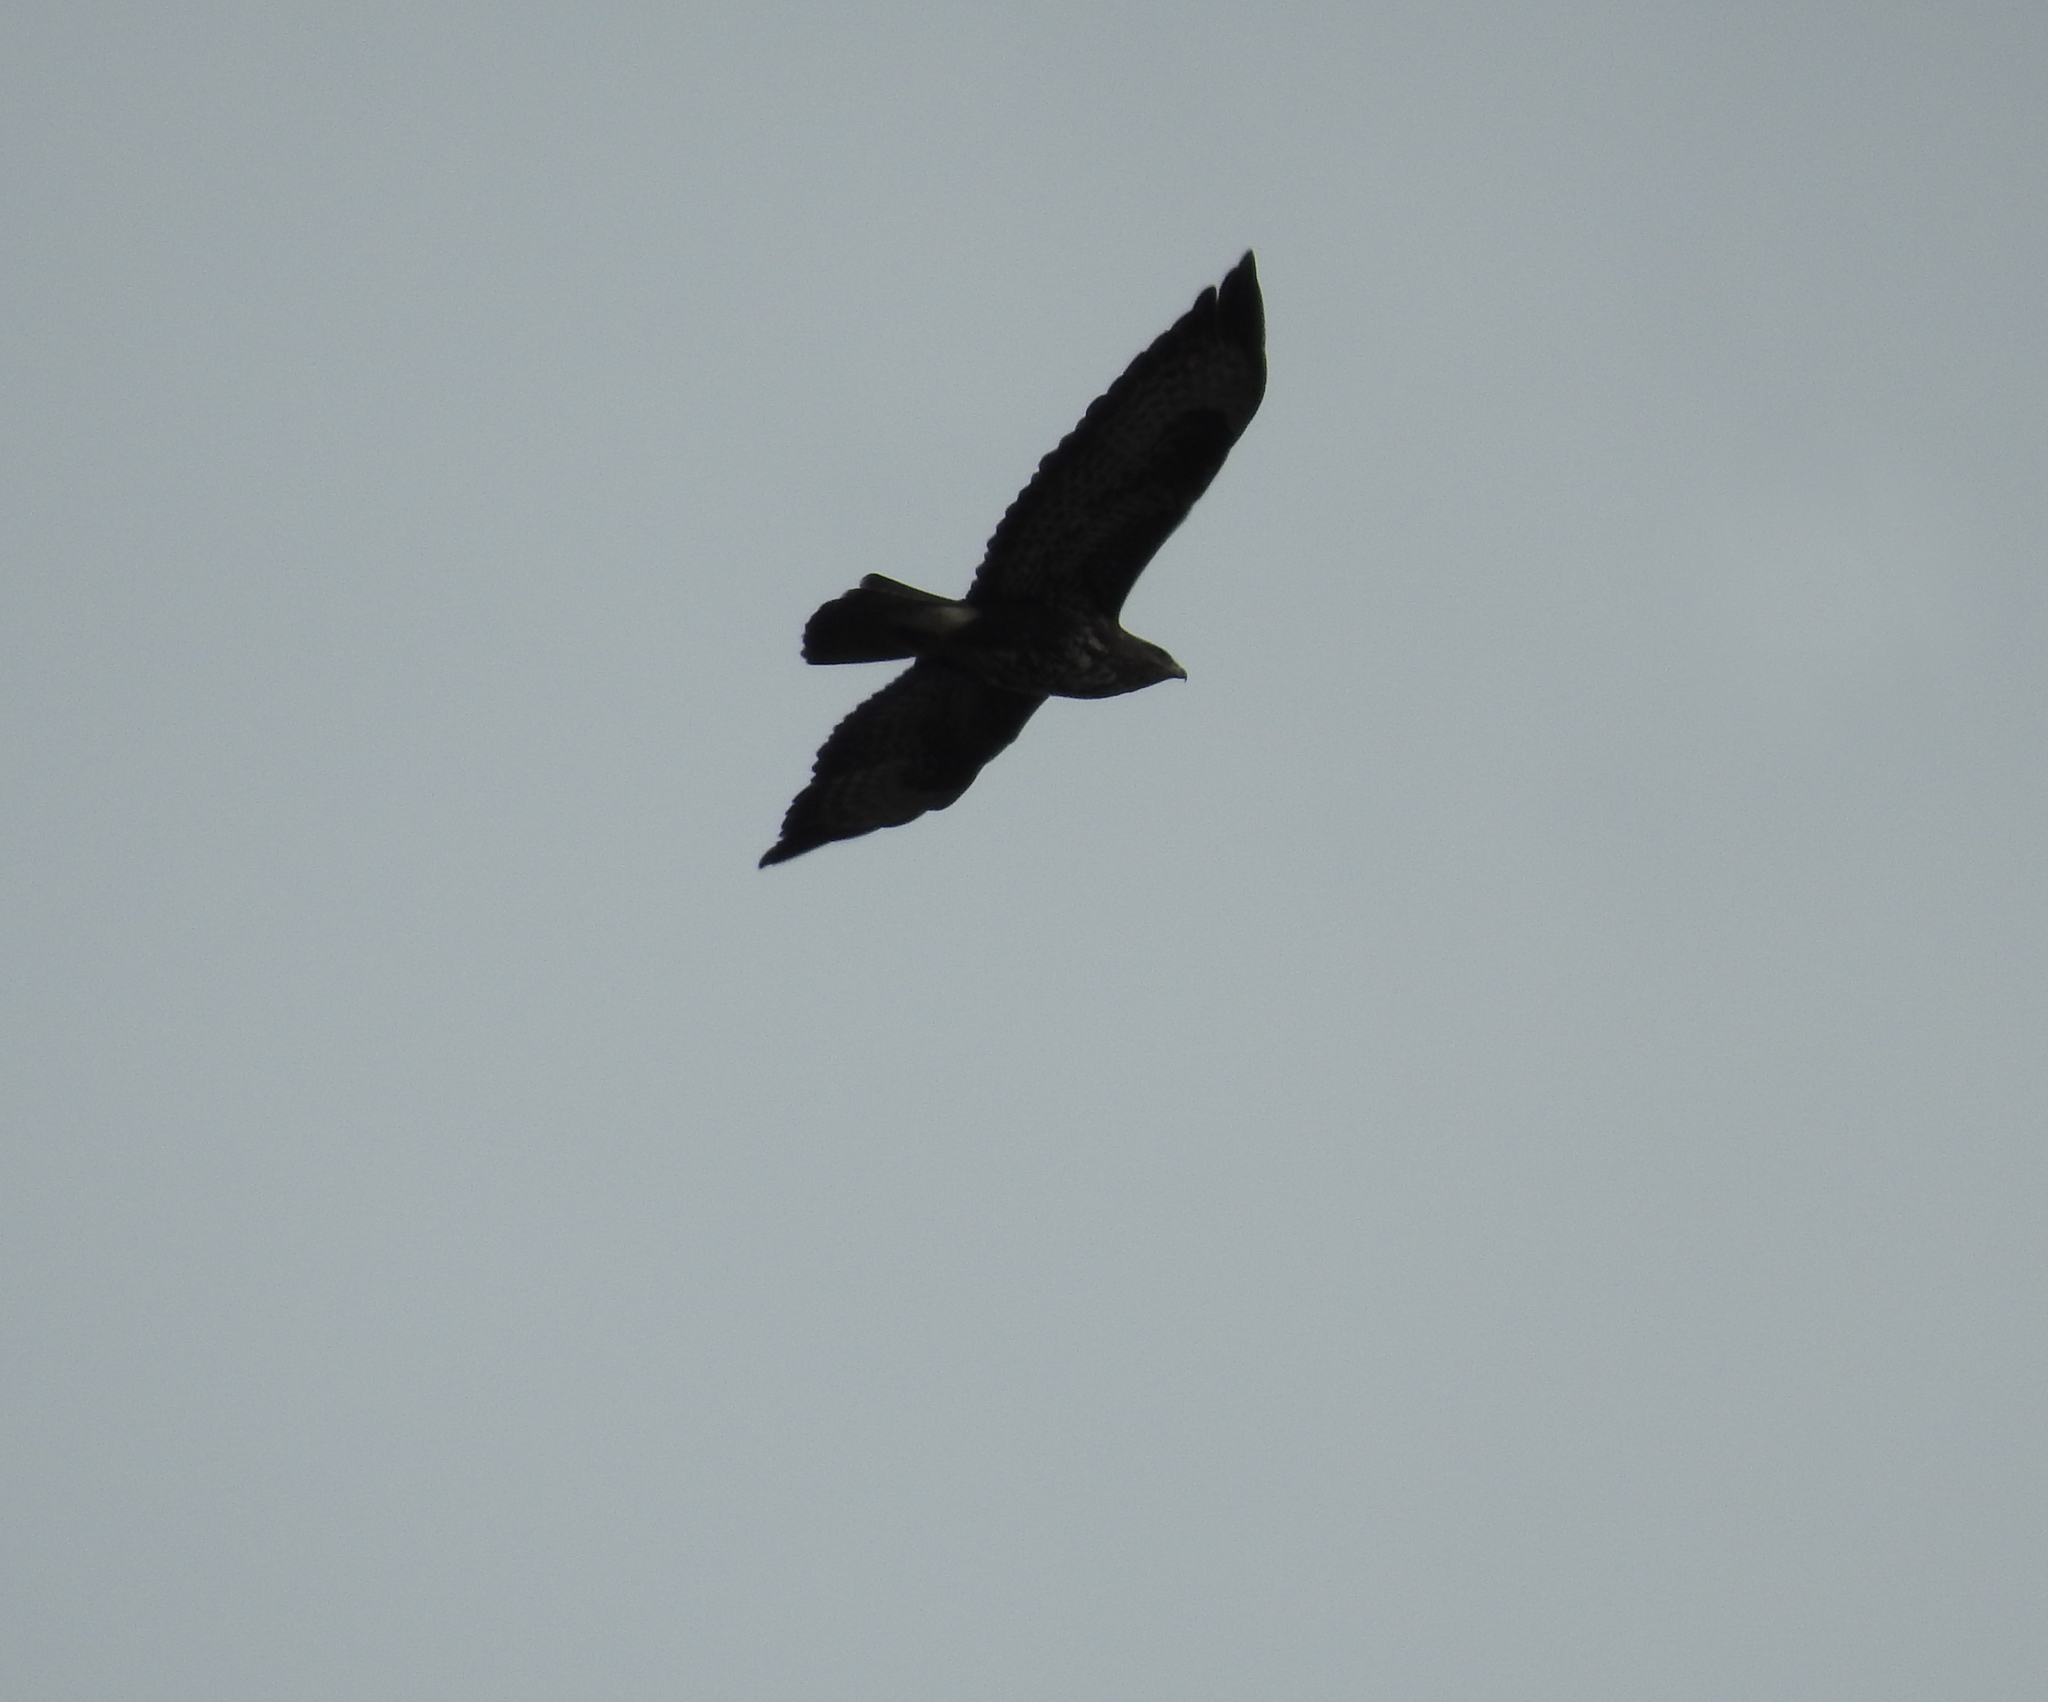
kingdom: Animalia
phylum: Chordata
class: Aves
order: Accipitriformes
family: Accipitridae
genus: Buteo
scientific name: Buteo buteo
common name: Common buzzard
